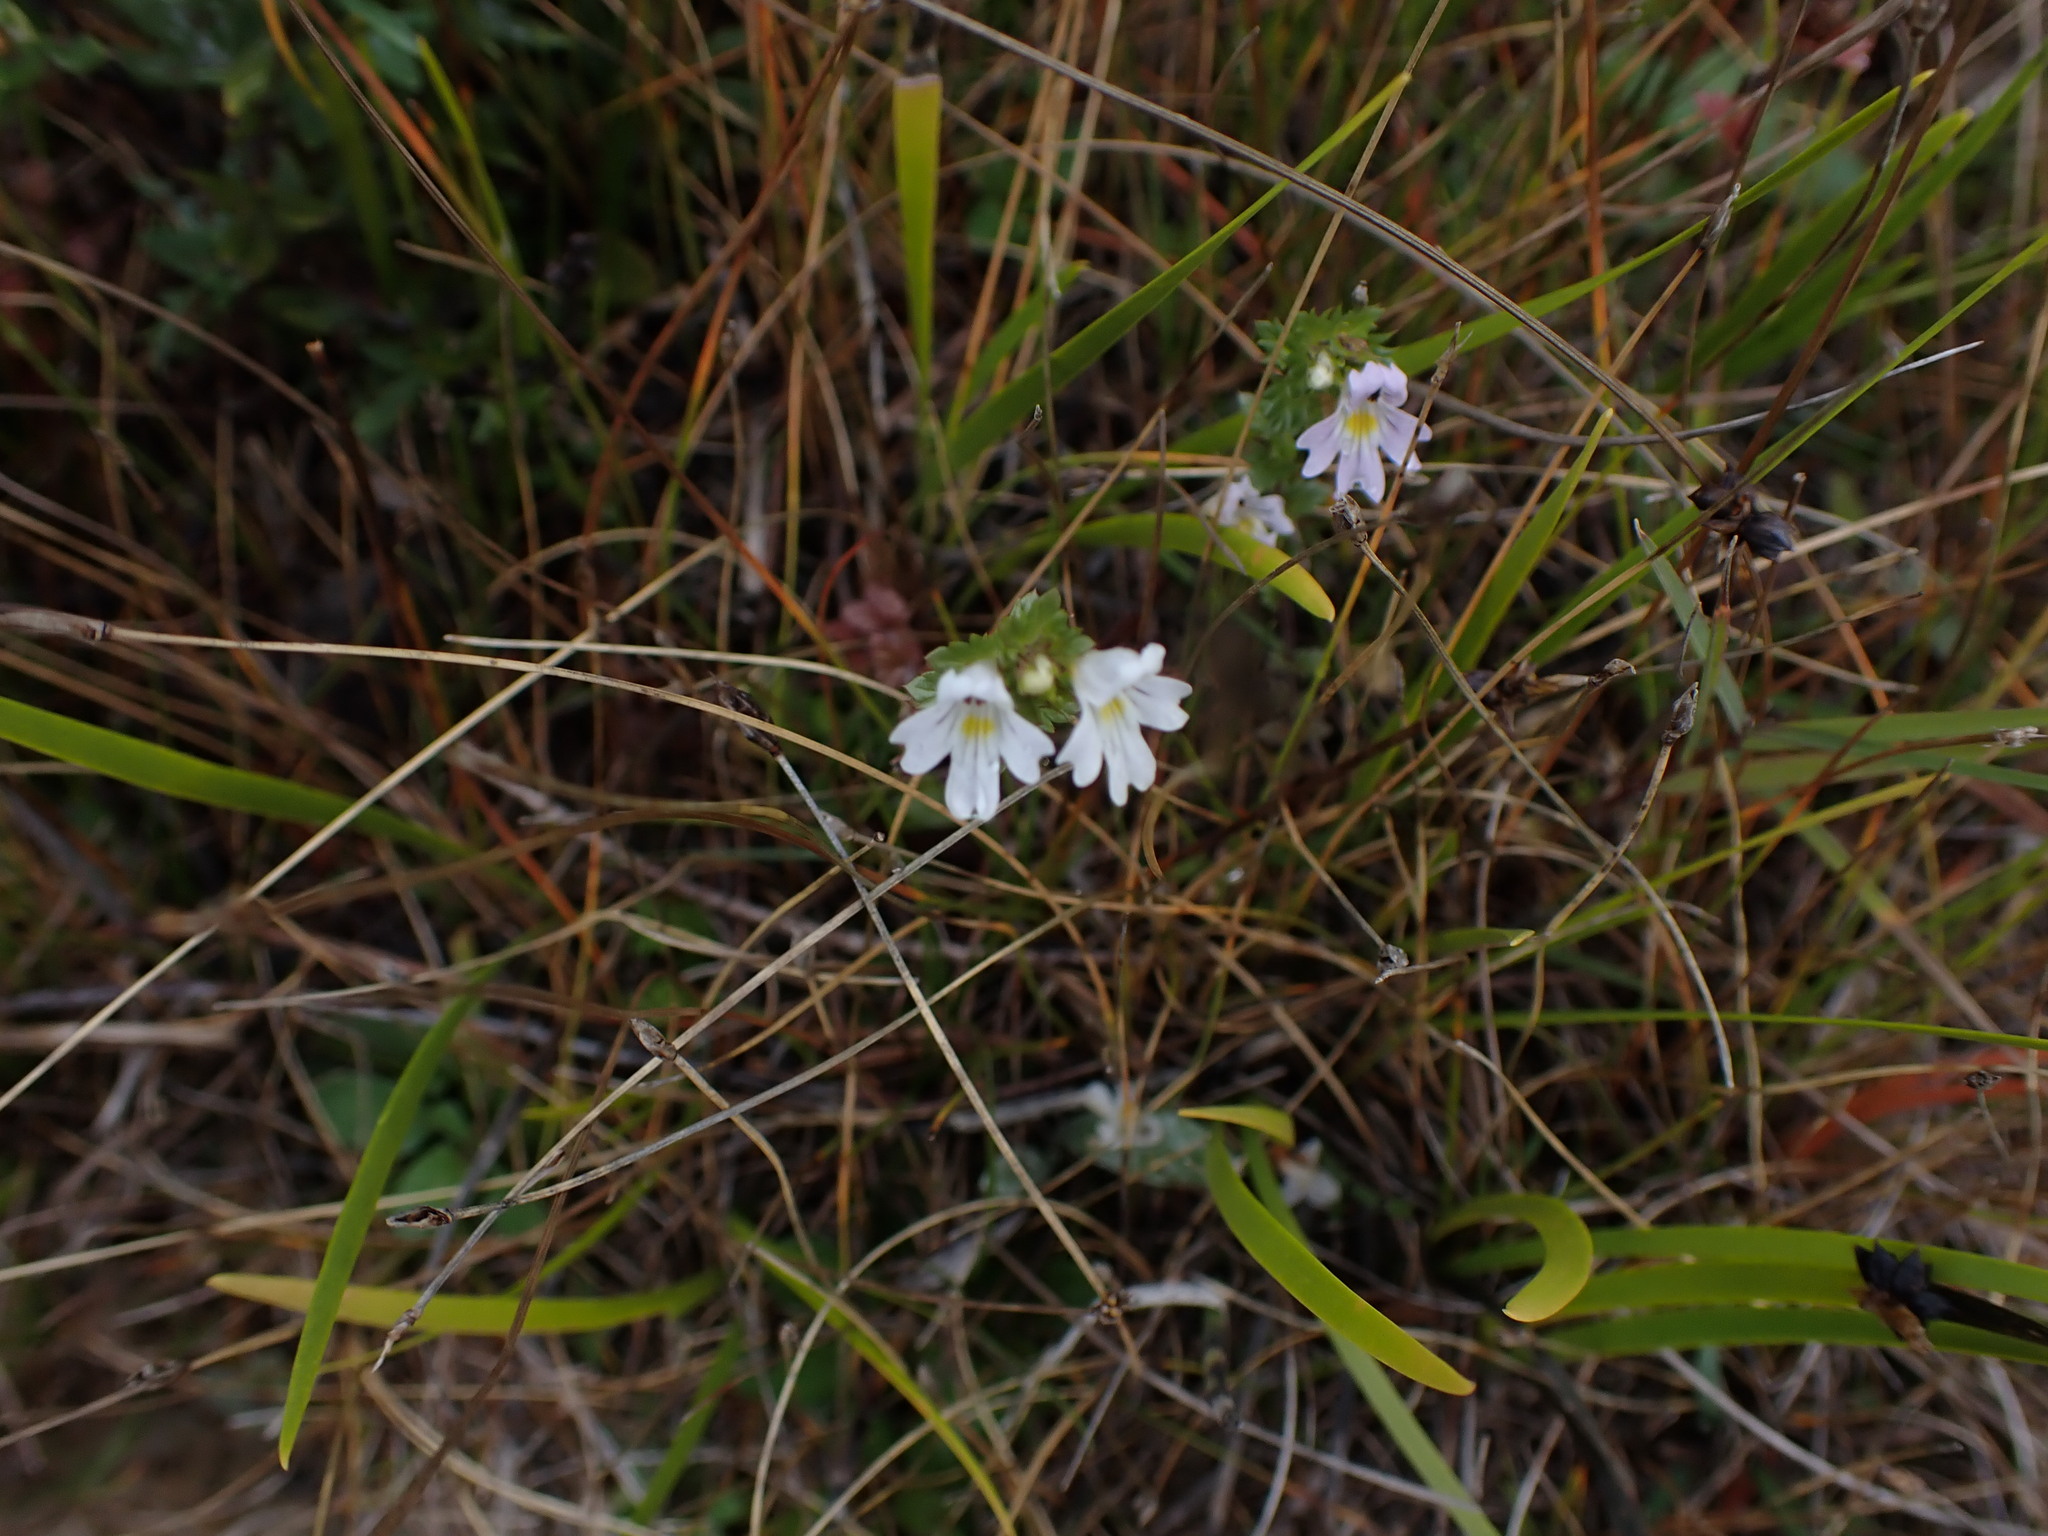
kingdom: Plantae
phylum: Tracheophyta
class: Magnoliopsida
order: Lamiales
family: Orobanchaceae
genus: Euphrasia
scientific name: Euphrasia nemorosa
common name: Common eyebright
